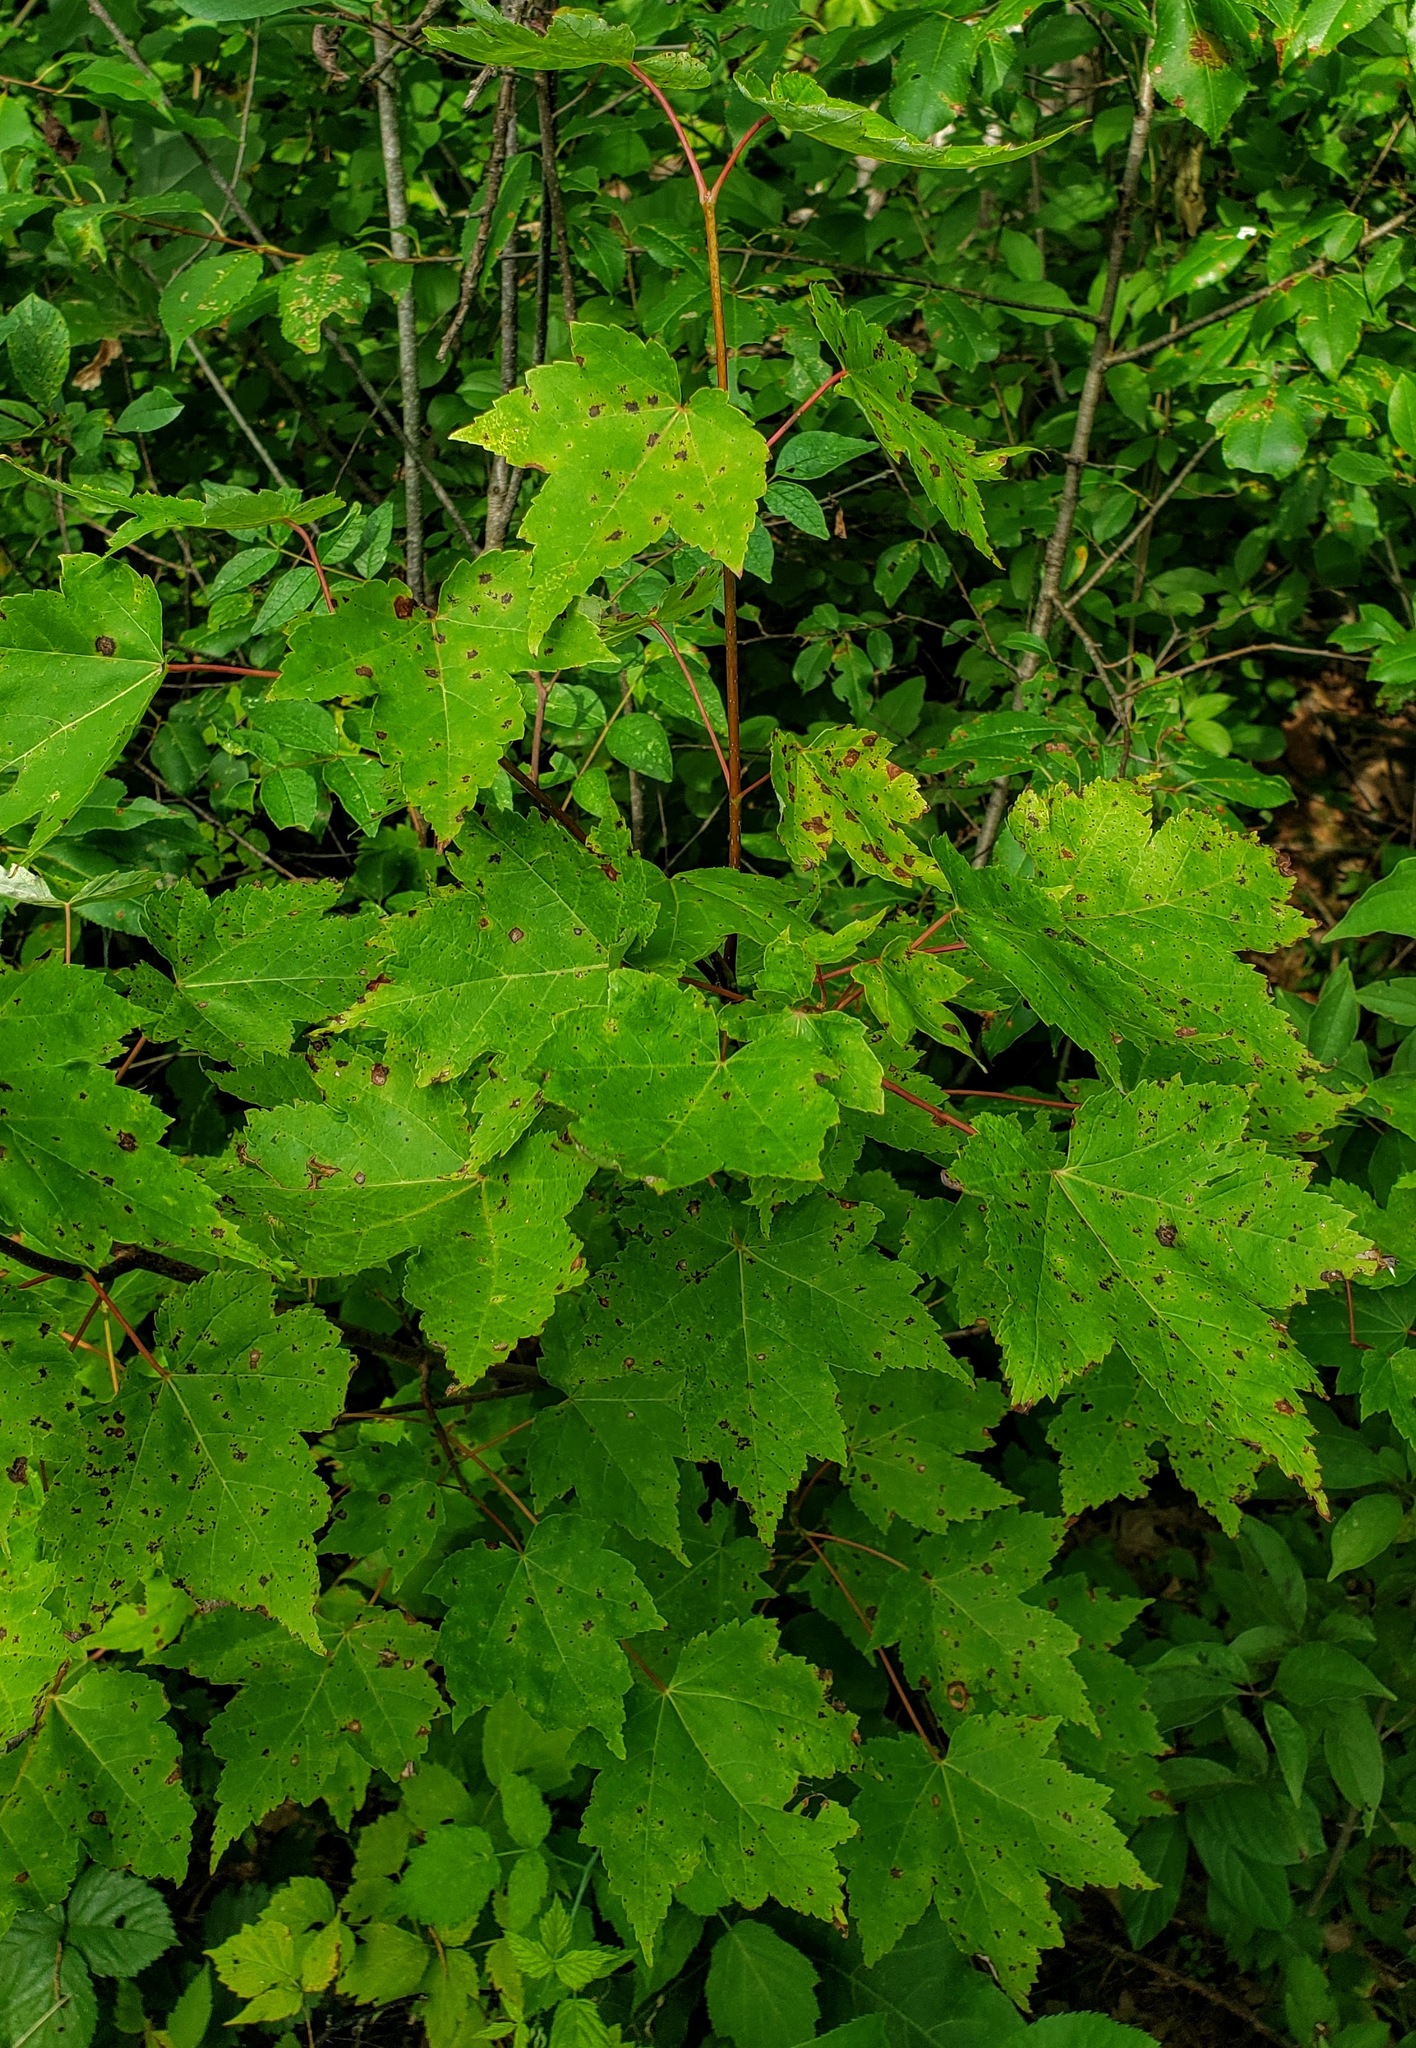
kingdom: Plantae
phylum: Tracheophyta
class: Magnoliopsida
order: Sapindales
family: Sapindaceae
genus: Acer
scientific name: Acer rubrum
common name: Red maple
